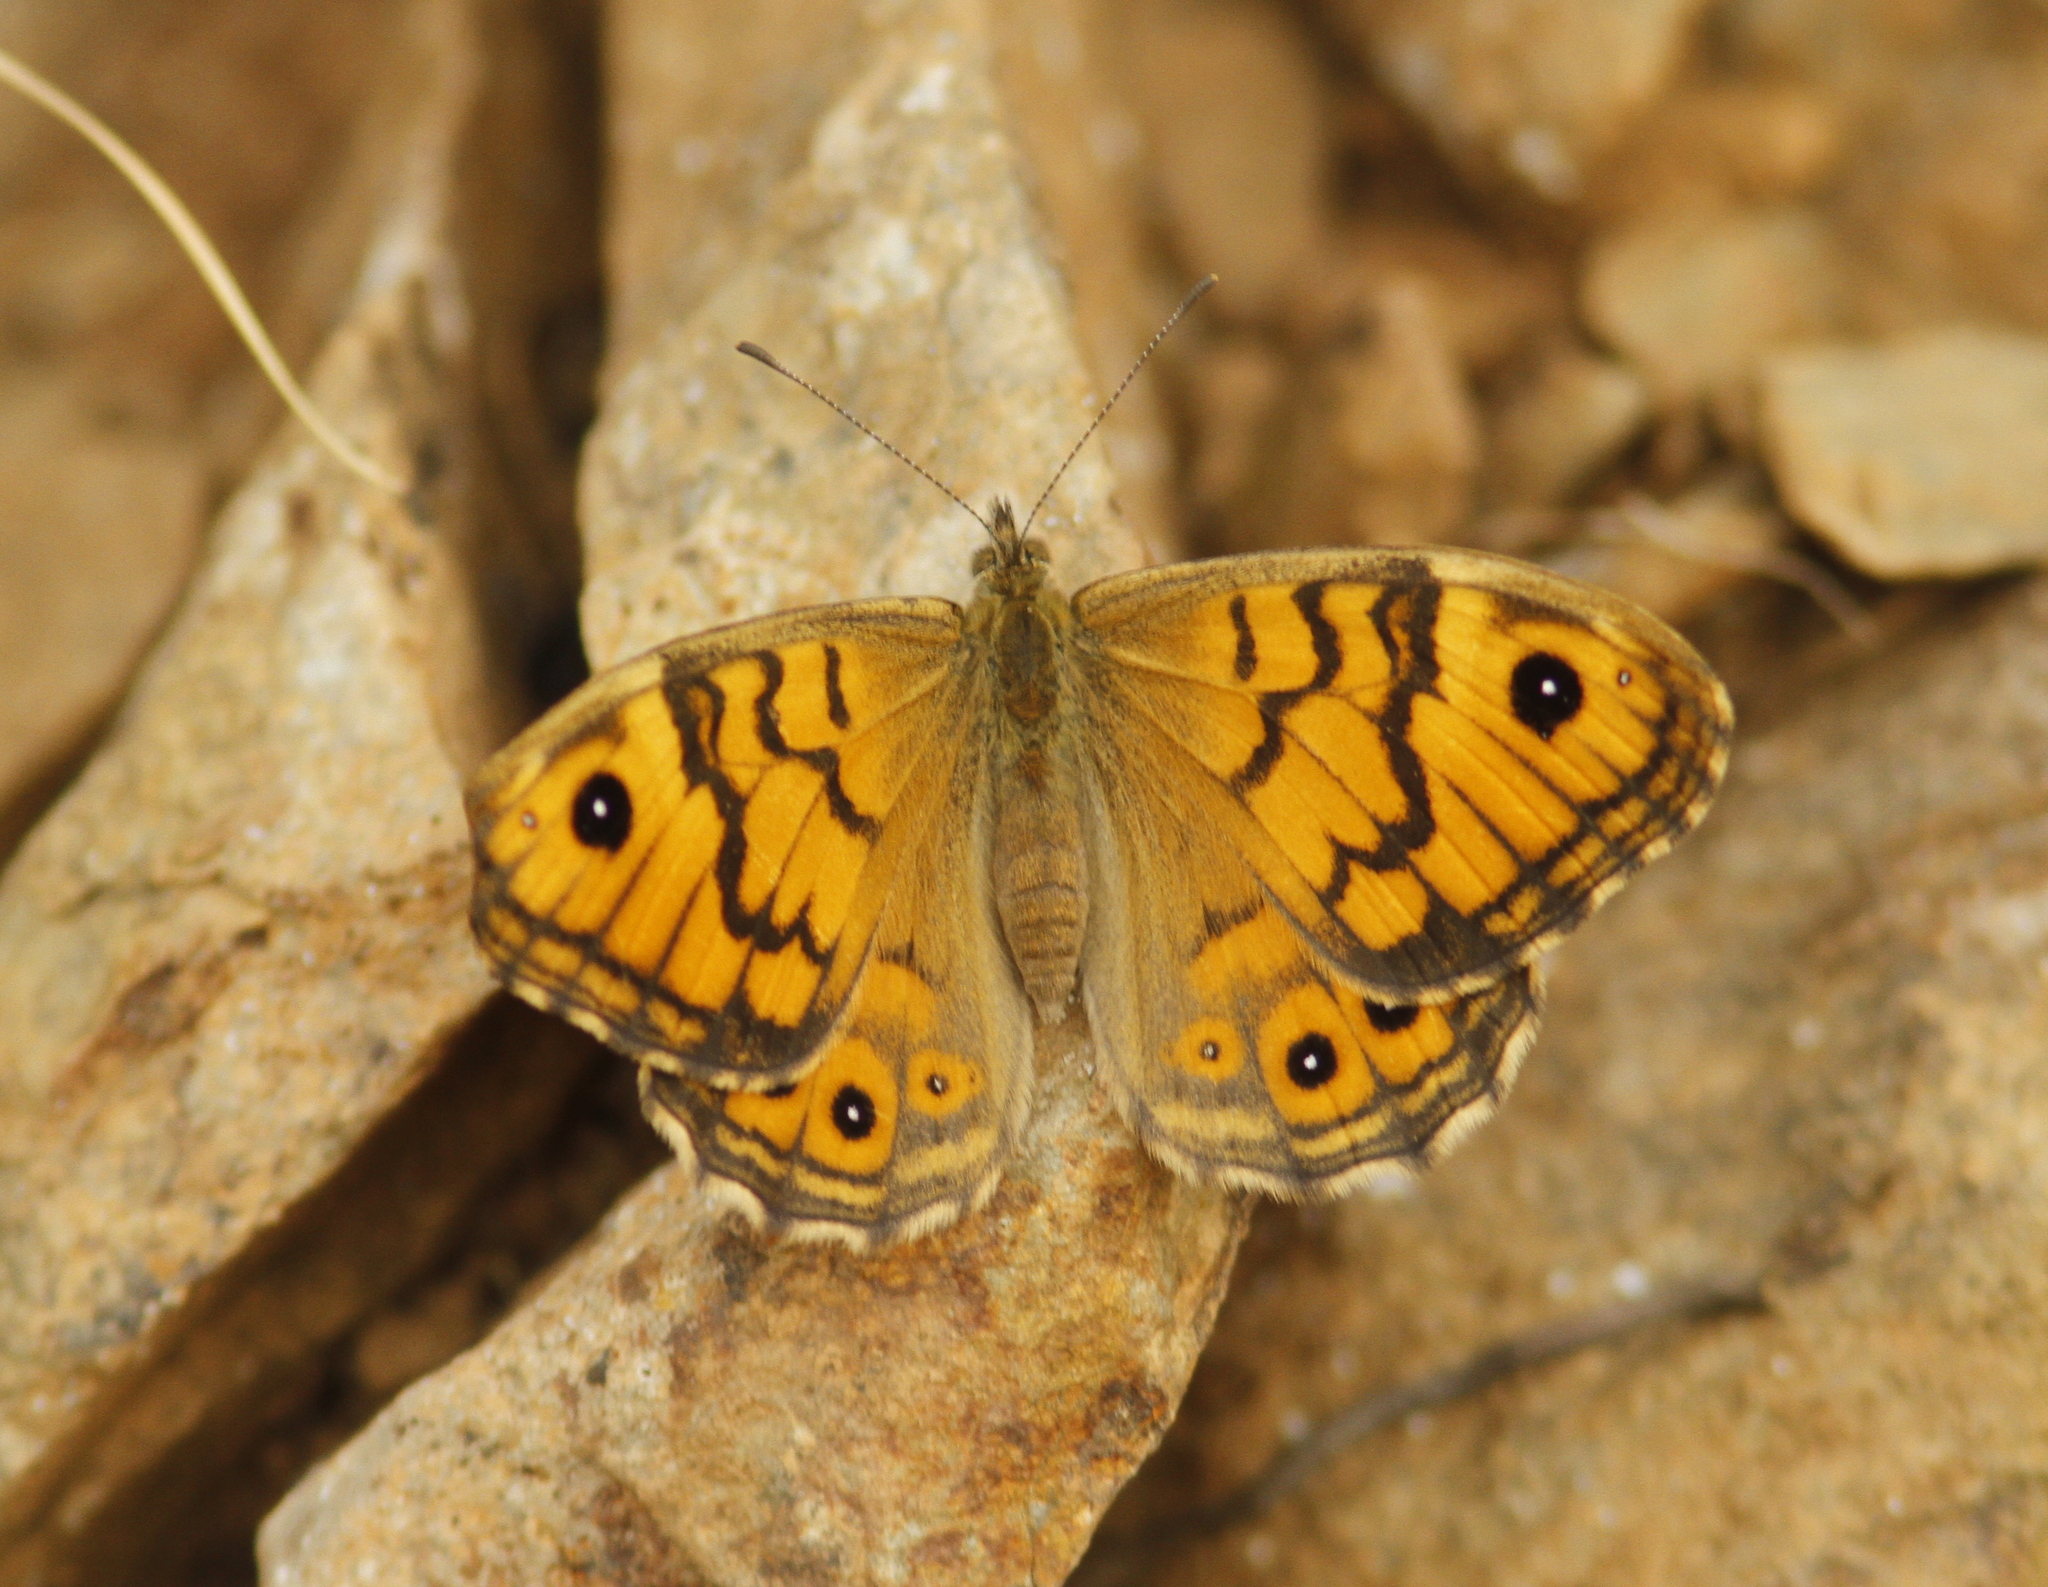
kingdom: Animalia
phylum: Arthropoda
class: Insecta
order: Lepidoptera
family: Nymphalidae
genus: Pararge
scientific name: Pararge Lasiommata megera
